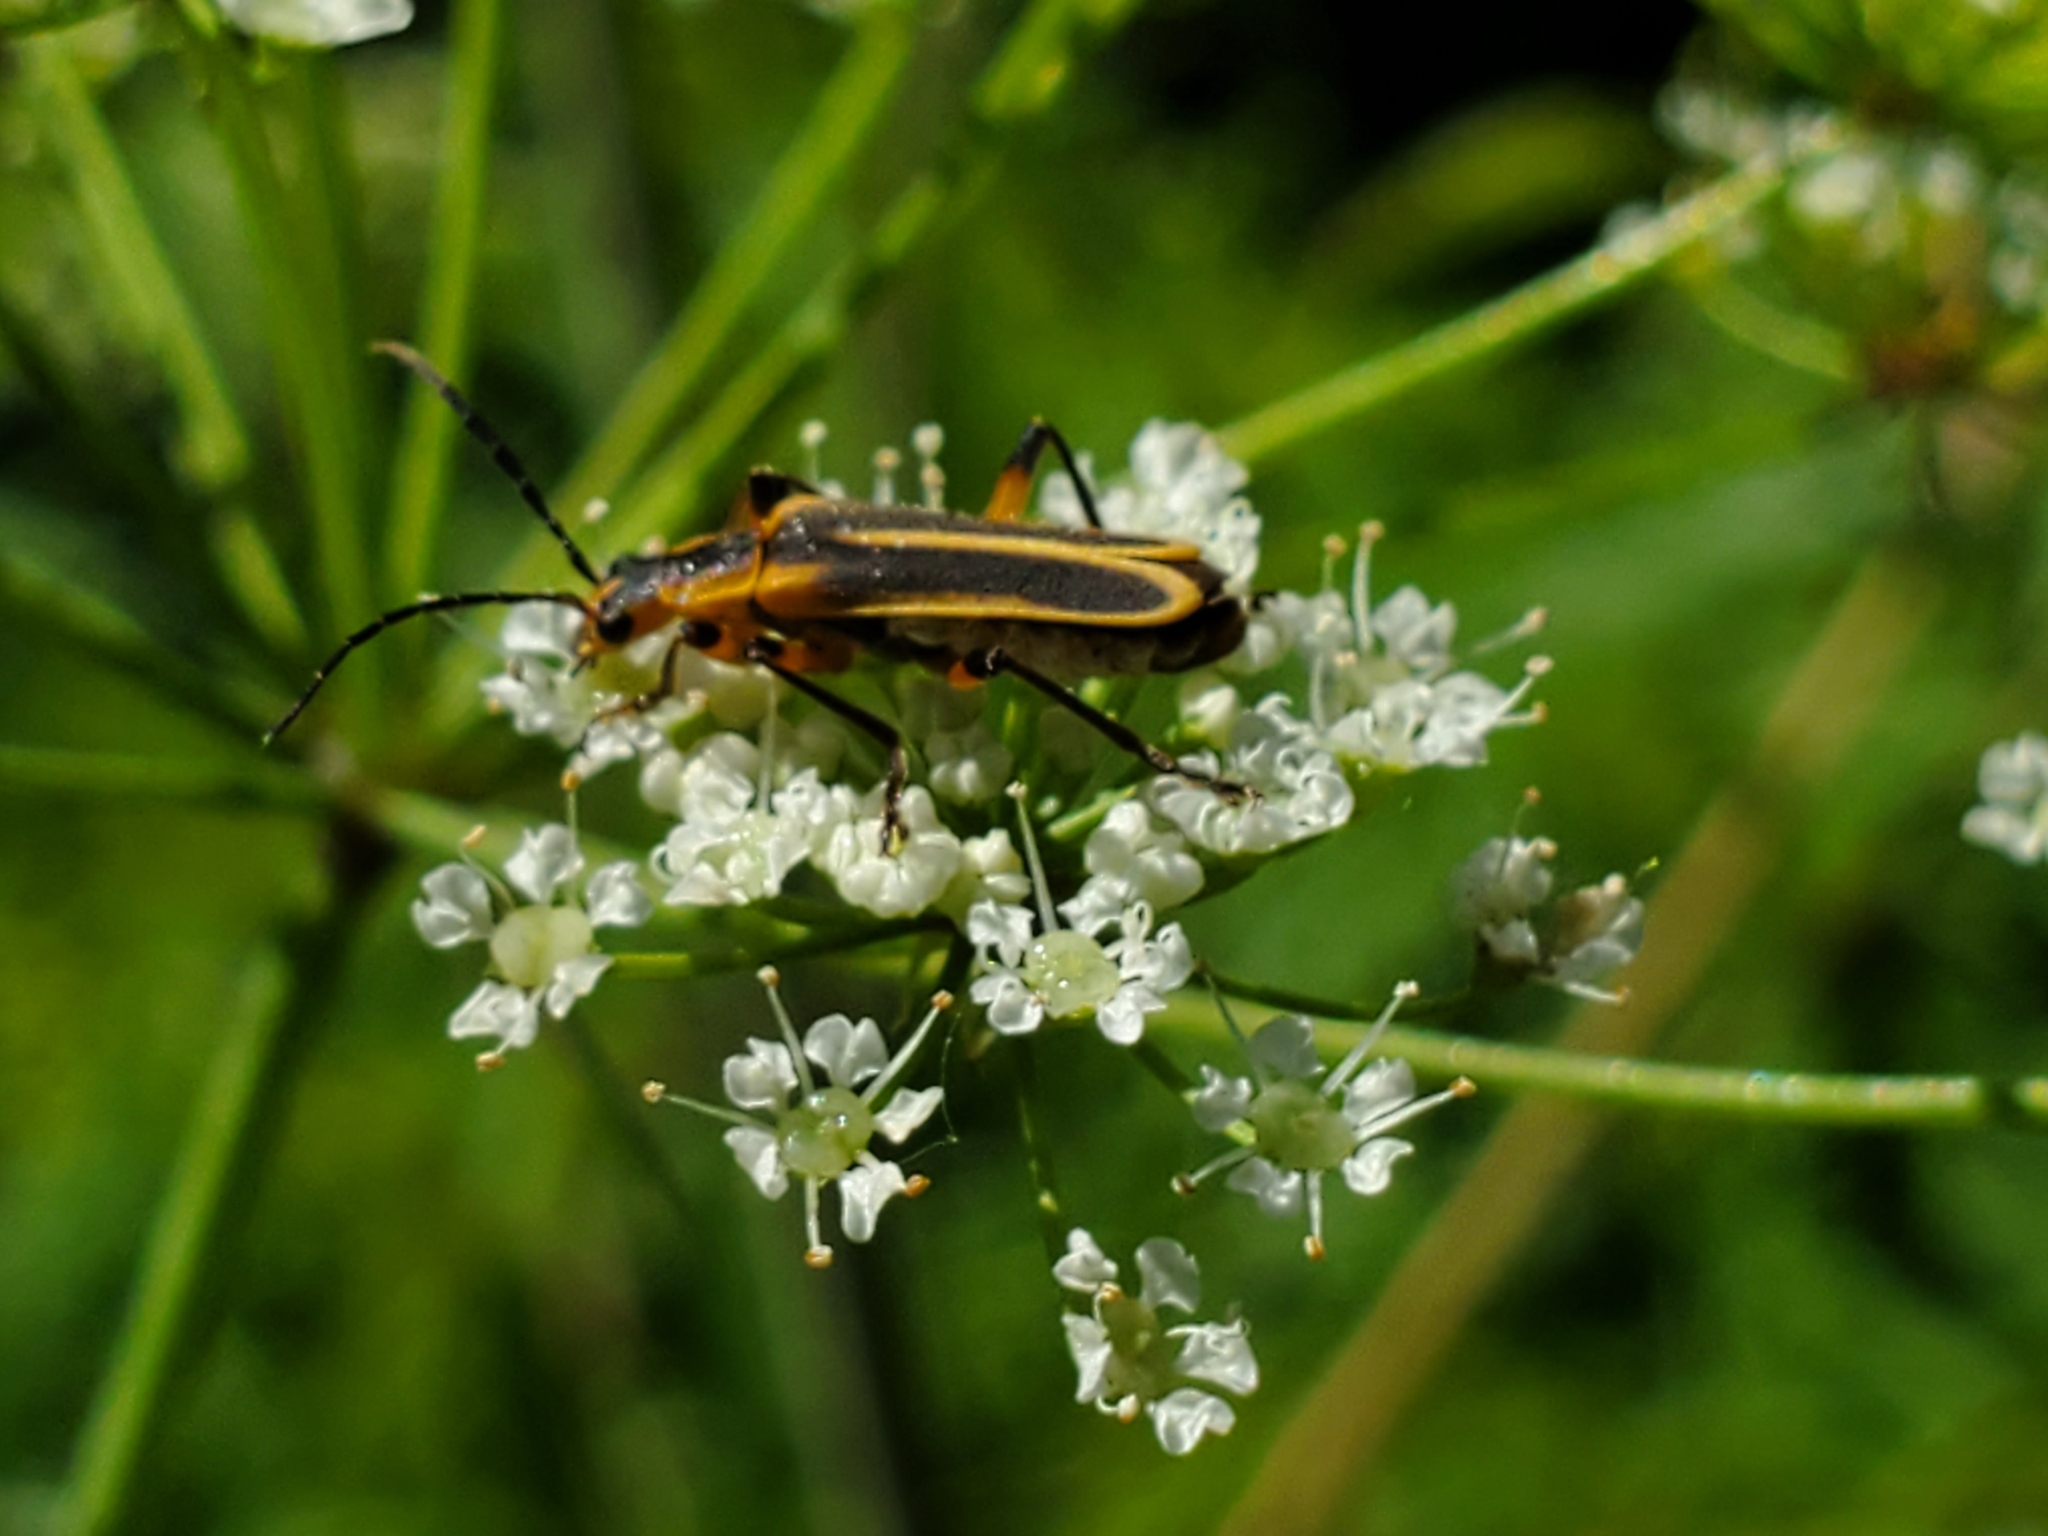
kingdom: Animalia
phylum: Arthropoda
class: Insecta
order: Coleoptera
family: Cantharidae
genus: Chauliognathus
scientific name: Chauliognathus marginatus
